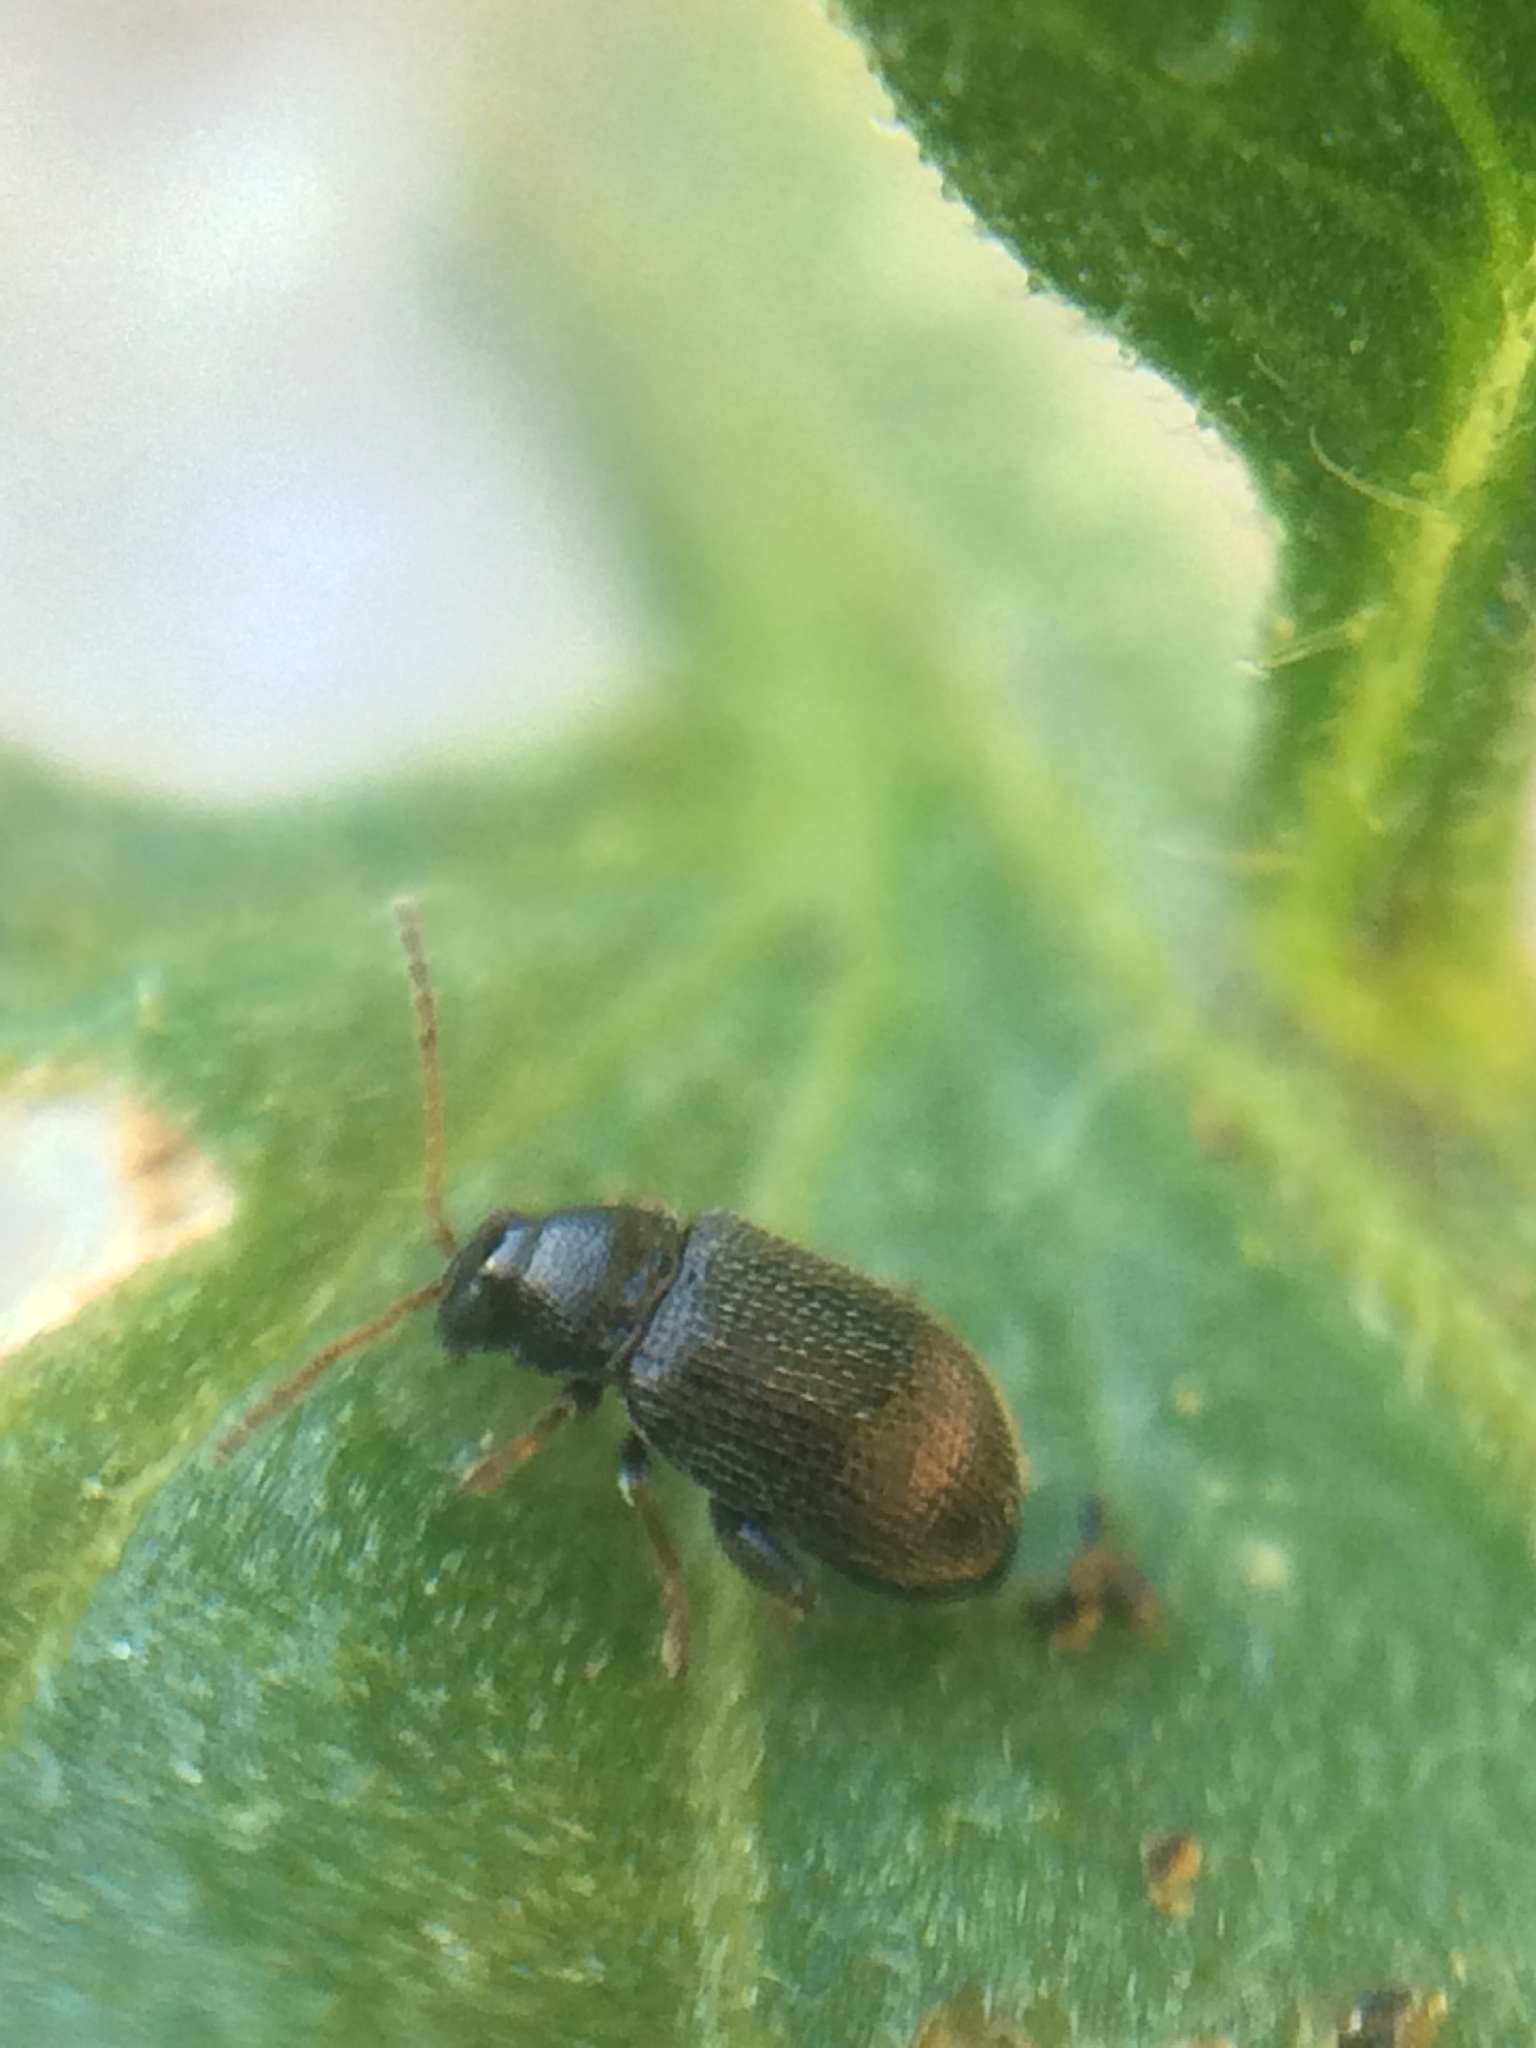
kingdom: Animalia
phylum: Arthropoda
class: Insecta
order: Coleoptera
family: Chrysomelidae
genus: Epitrix
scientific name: Epitrix tuberis
